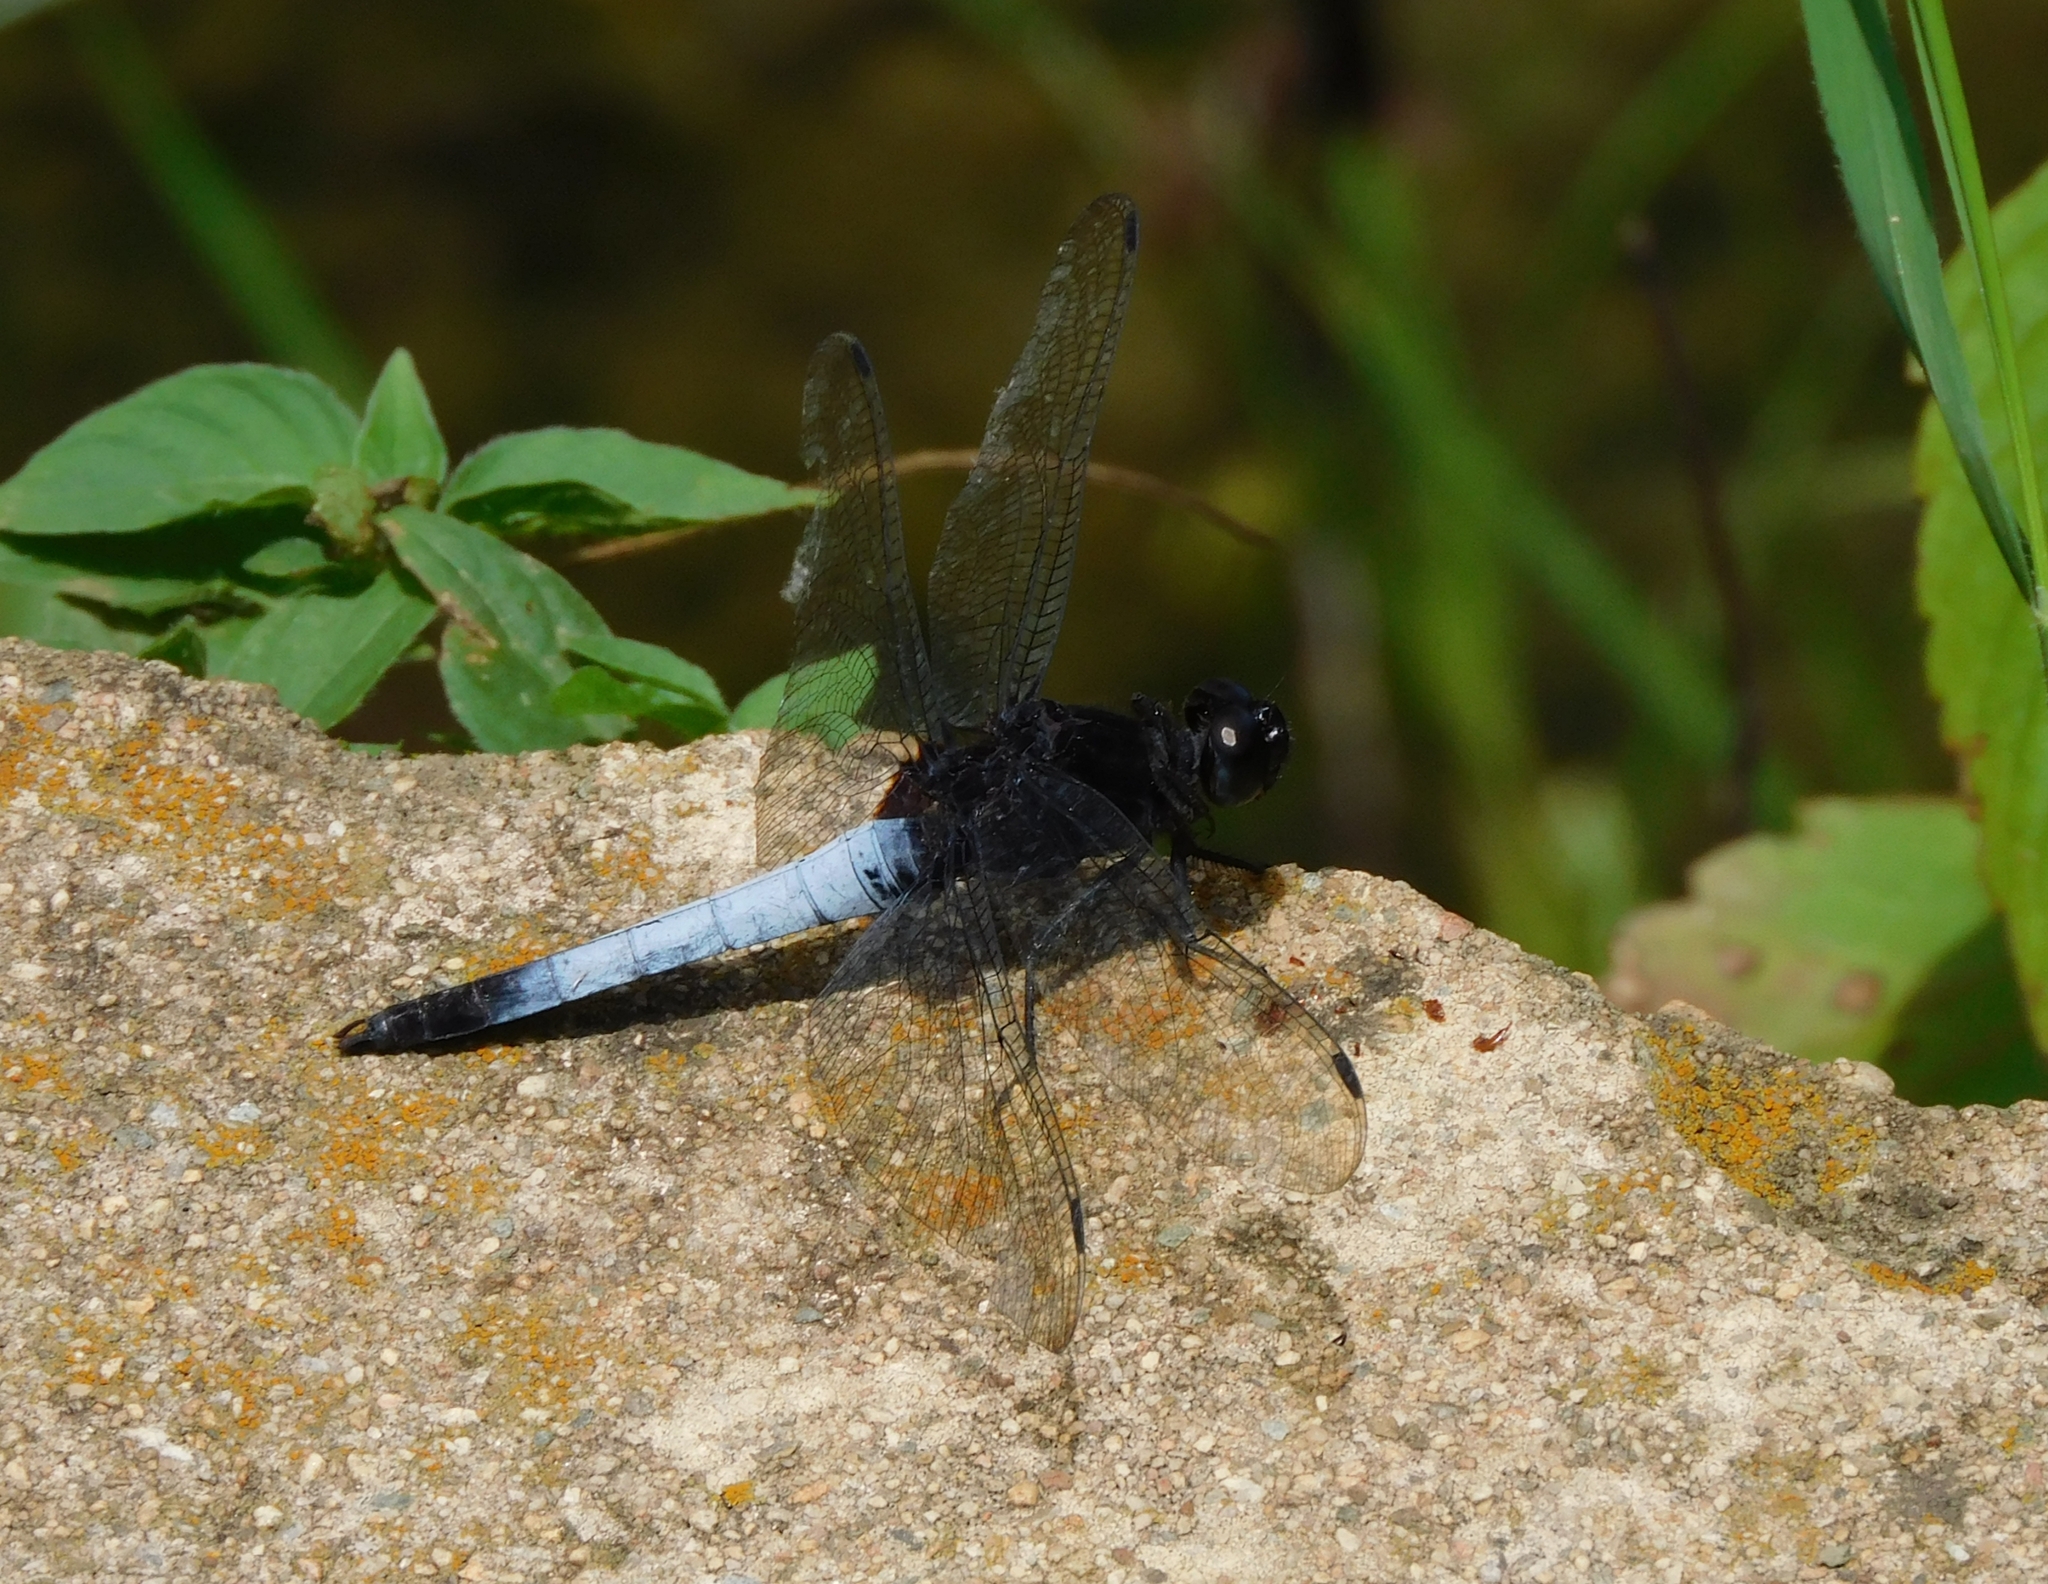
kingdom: Animalia
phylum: Arthropoda
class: Insecta
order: Odonata
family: Libellulidae
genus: Orthetrum
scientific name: Orthetrum triangulare
